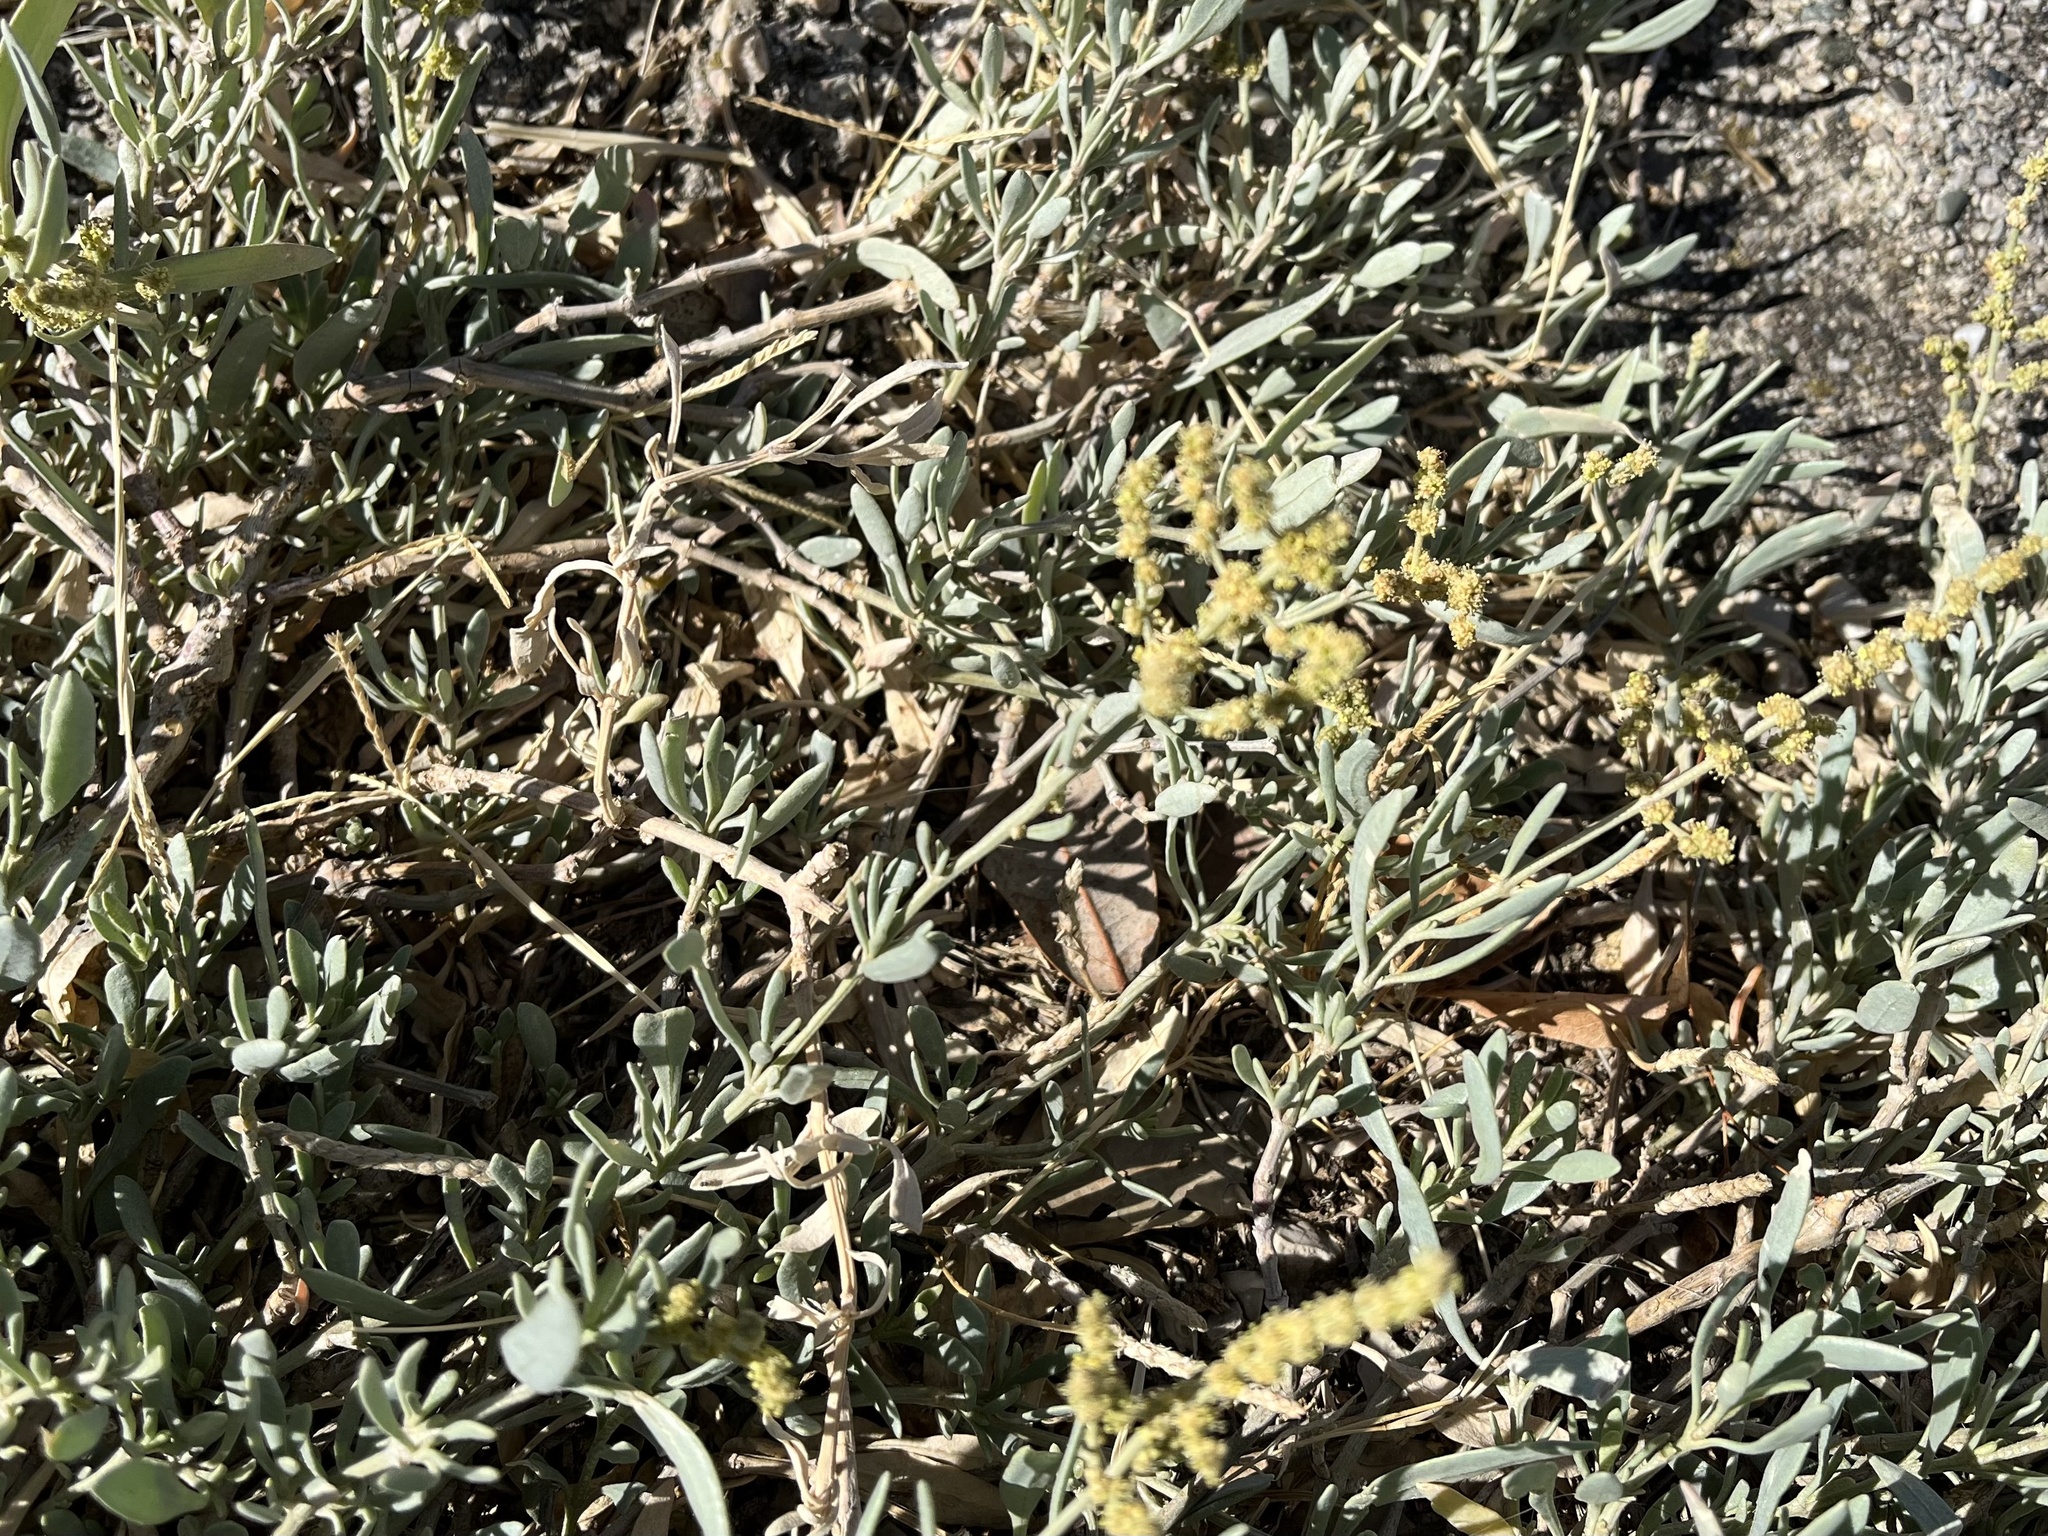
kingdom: Plantae
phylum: Tracheophyta
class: Magnoliopsida
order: Caryophyllales
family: Amaranthaceae
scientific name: Amaranthaceae
